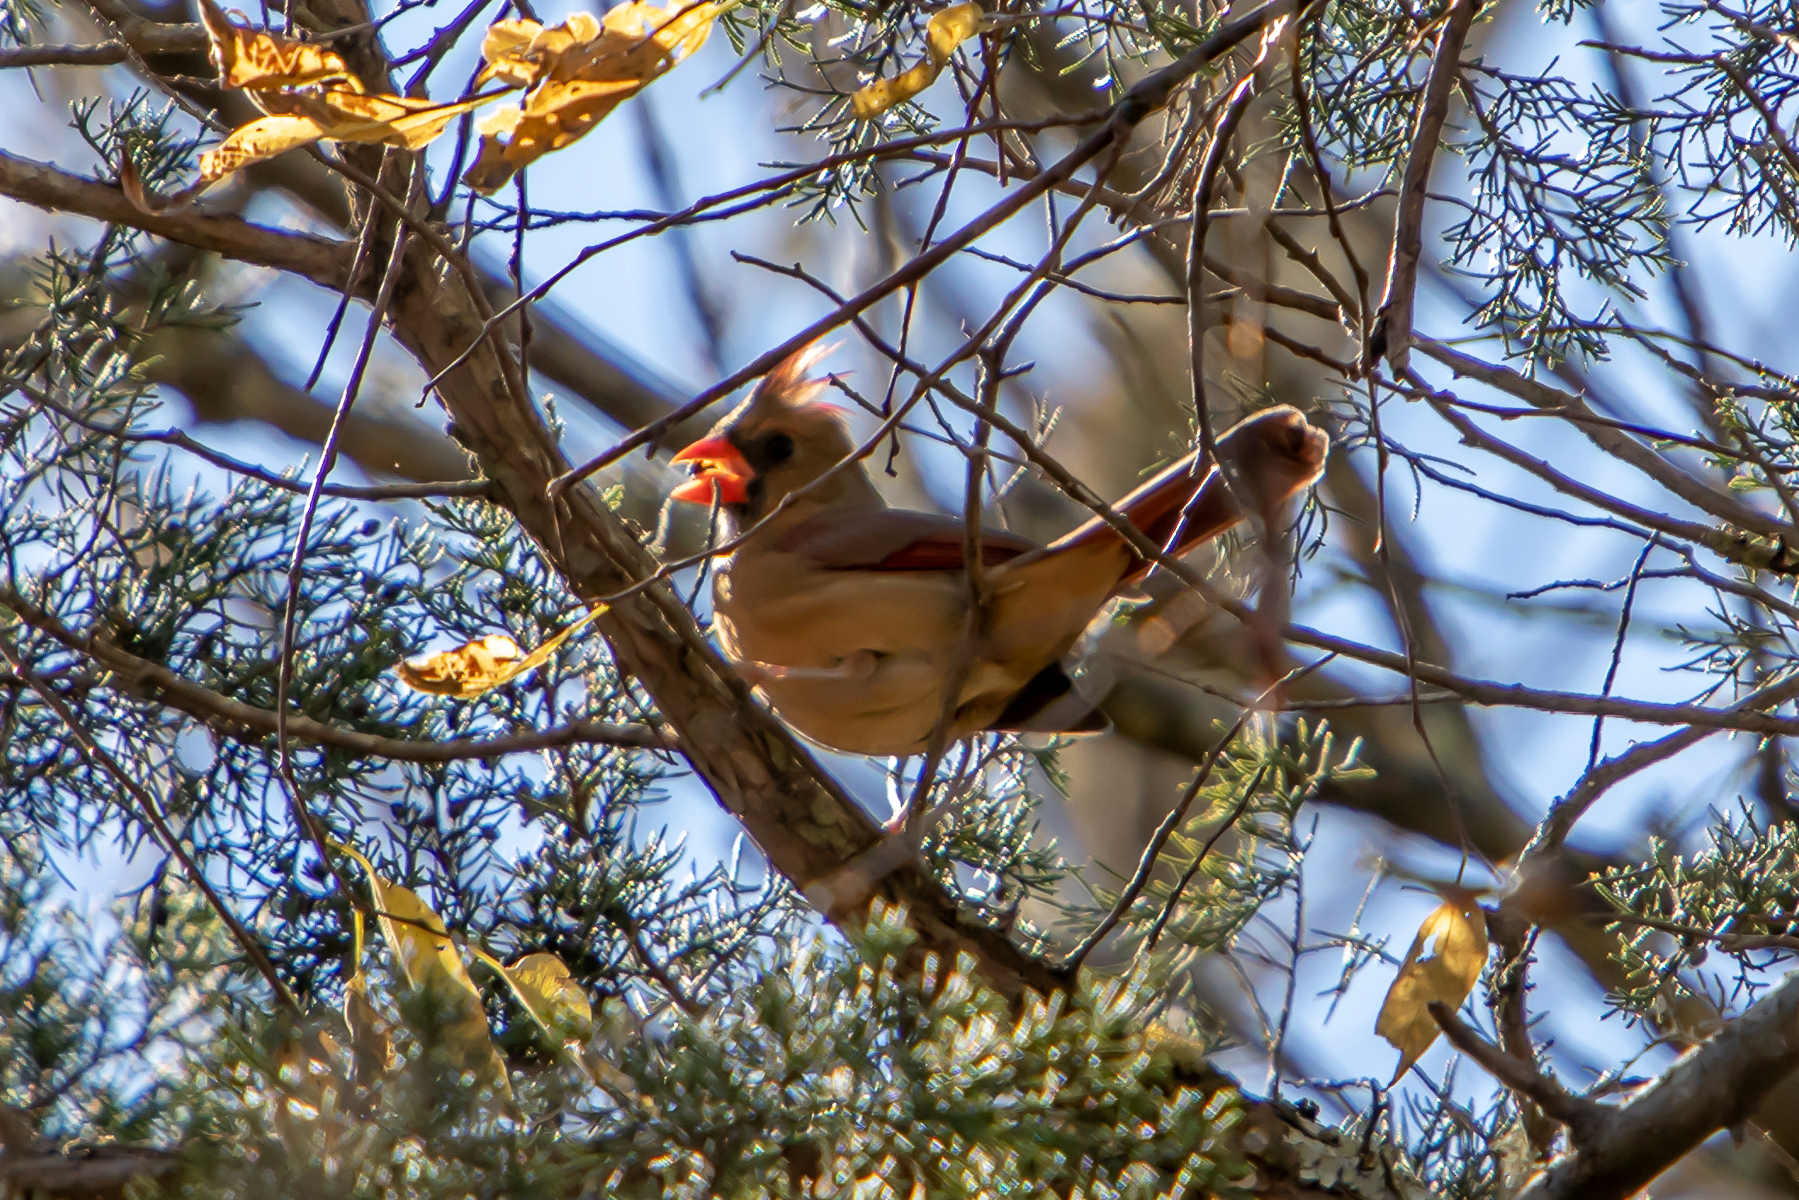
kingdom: Animalia
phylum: Chordata
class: Aves
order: Passeriformes
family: Cardinalidae
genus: Cardinalis
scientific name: Cardinalis cardinalis
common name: Northern cardinal
